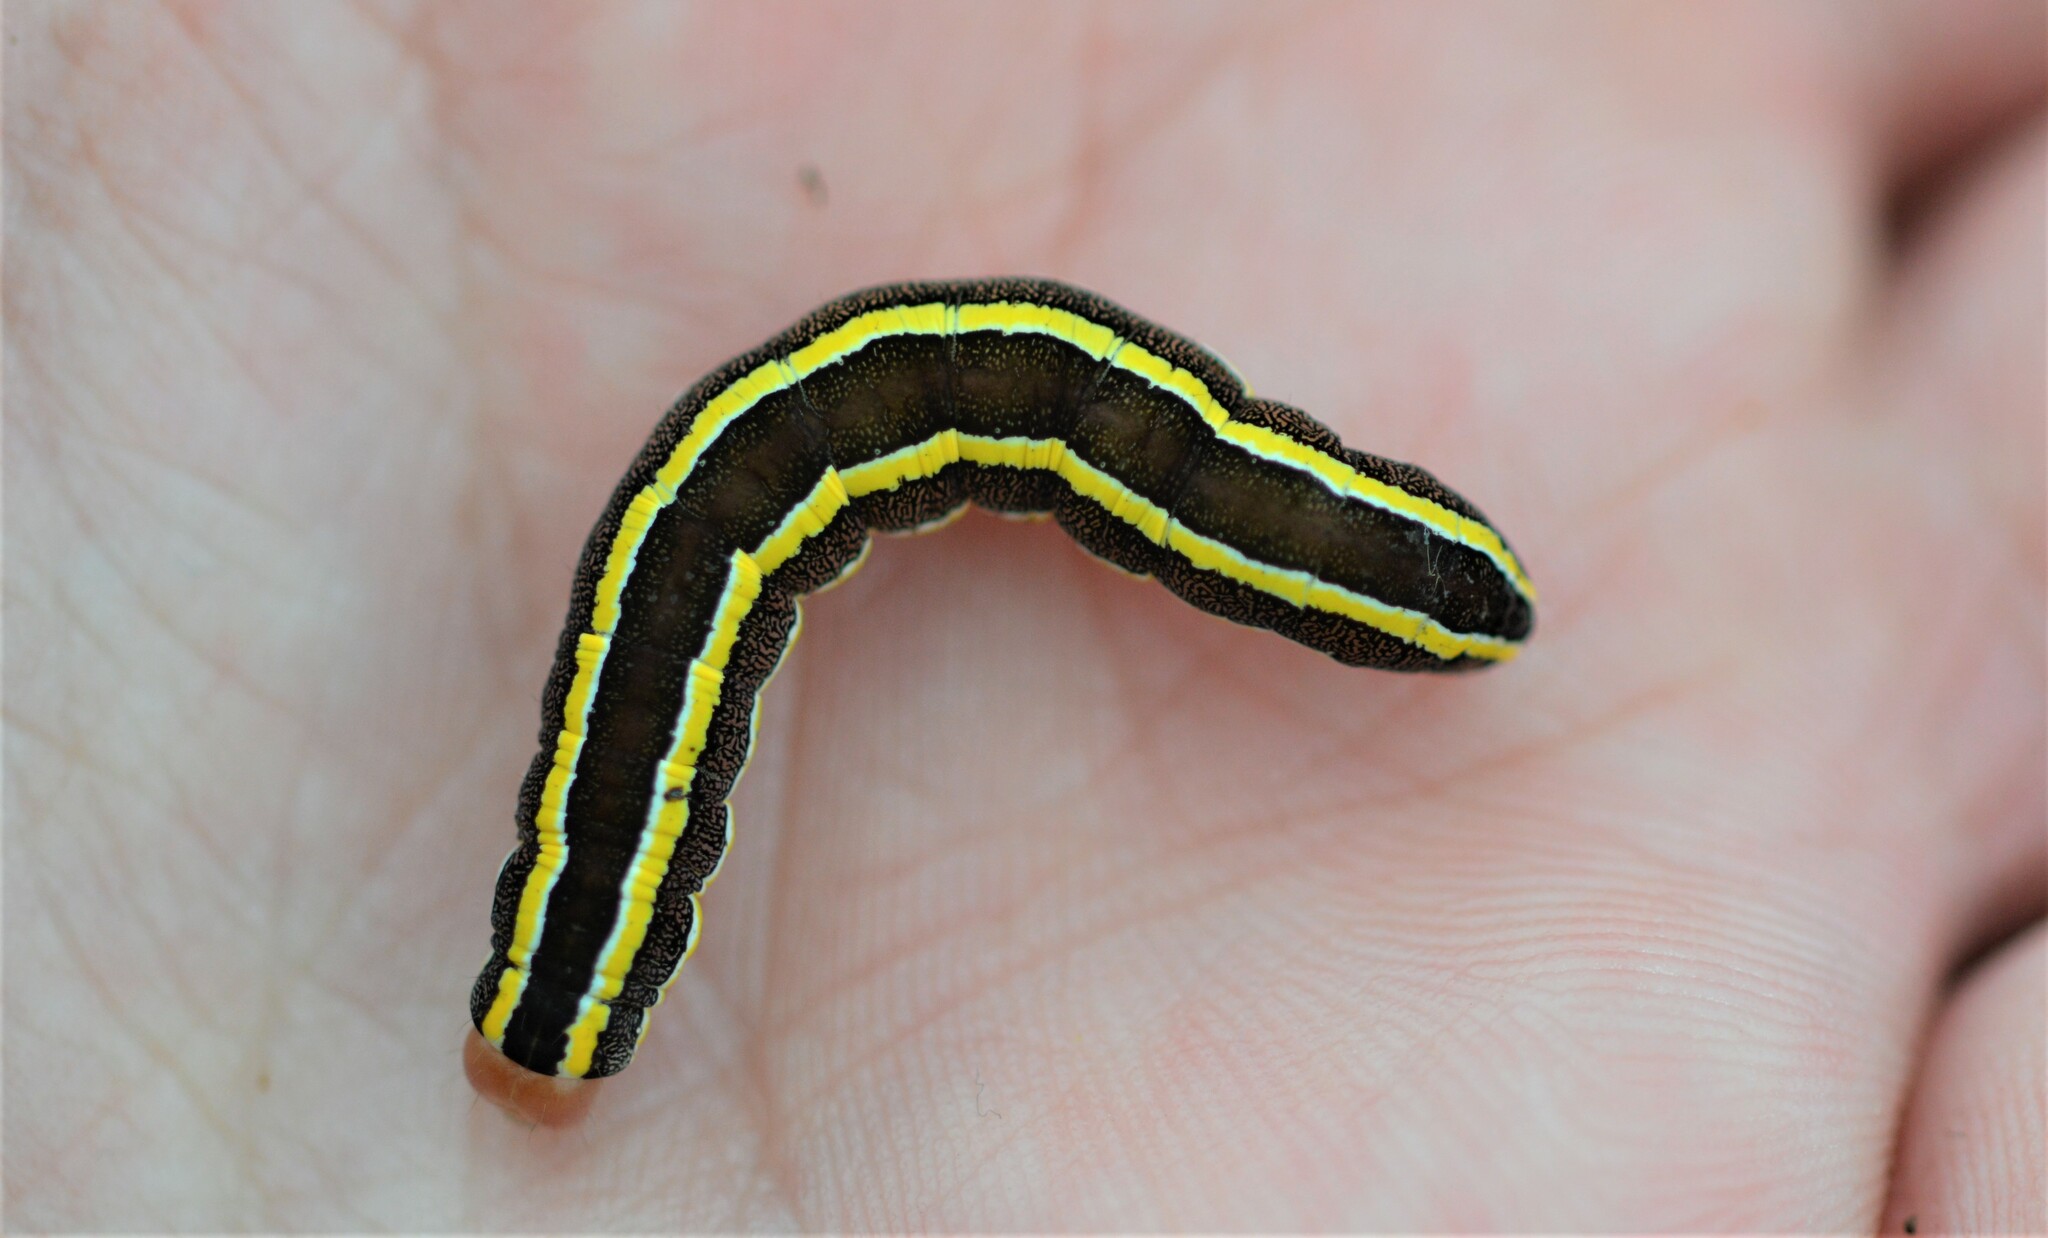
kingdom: Animalia
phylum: Arthropoda
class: Insecta
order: Lepidoptera
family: Noctuidae
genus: Ceramica
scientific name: Ceramica pisi
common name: Broom moth
